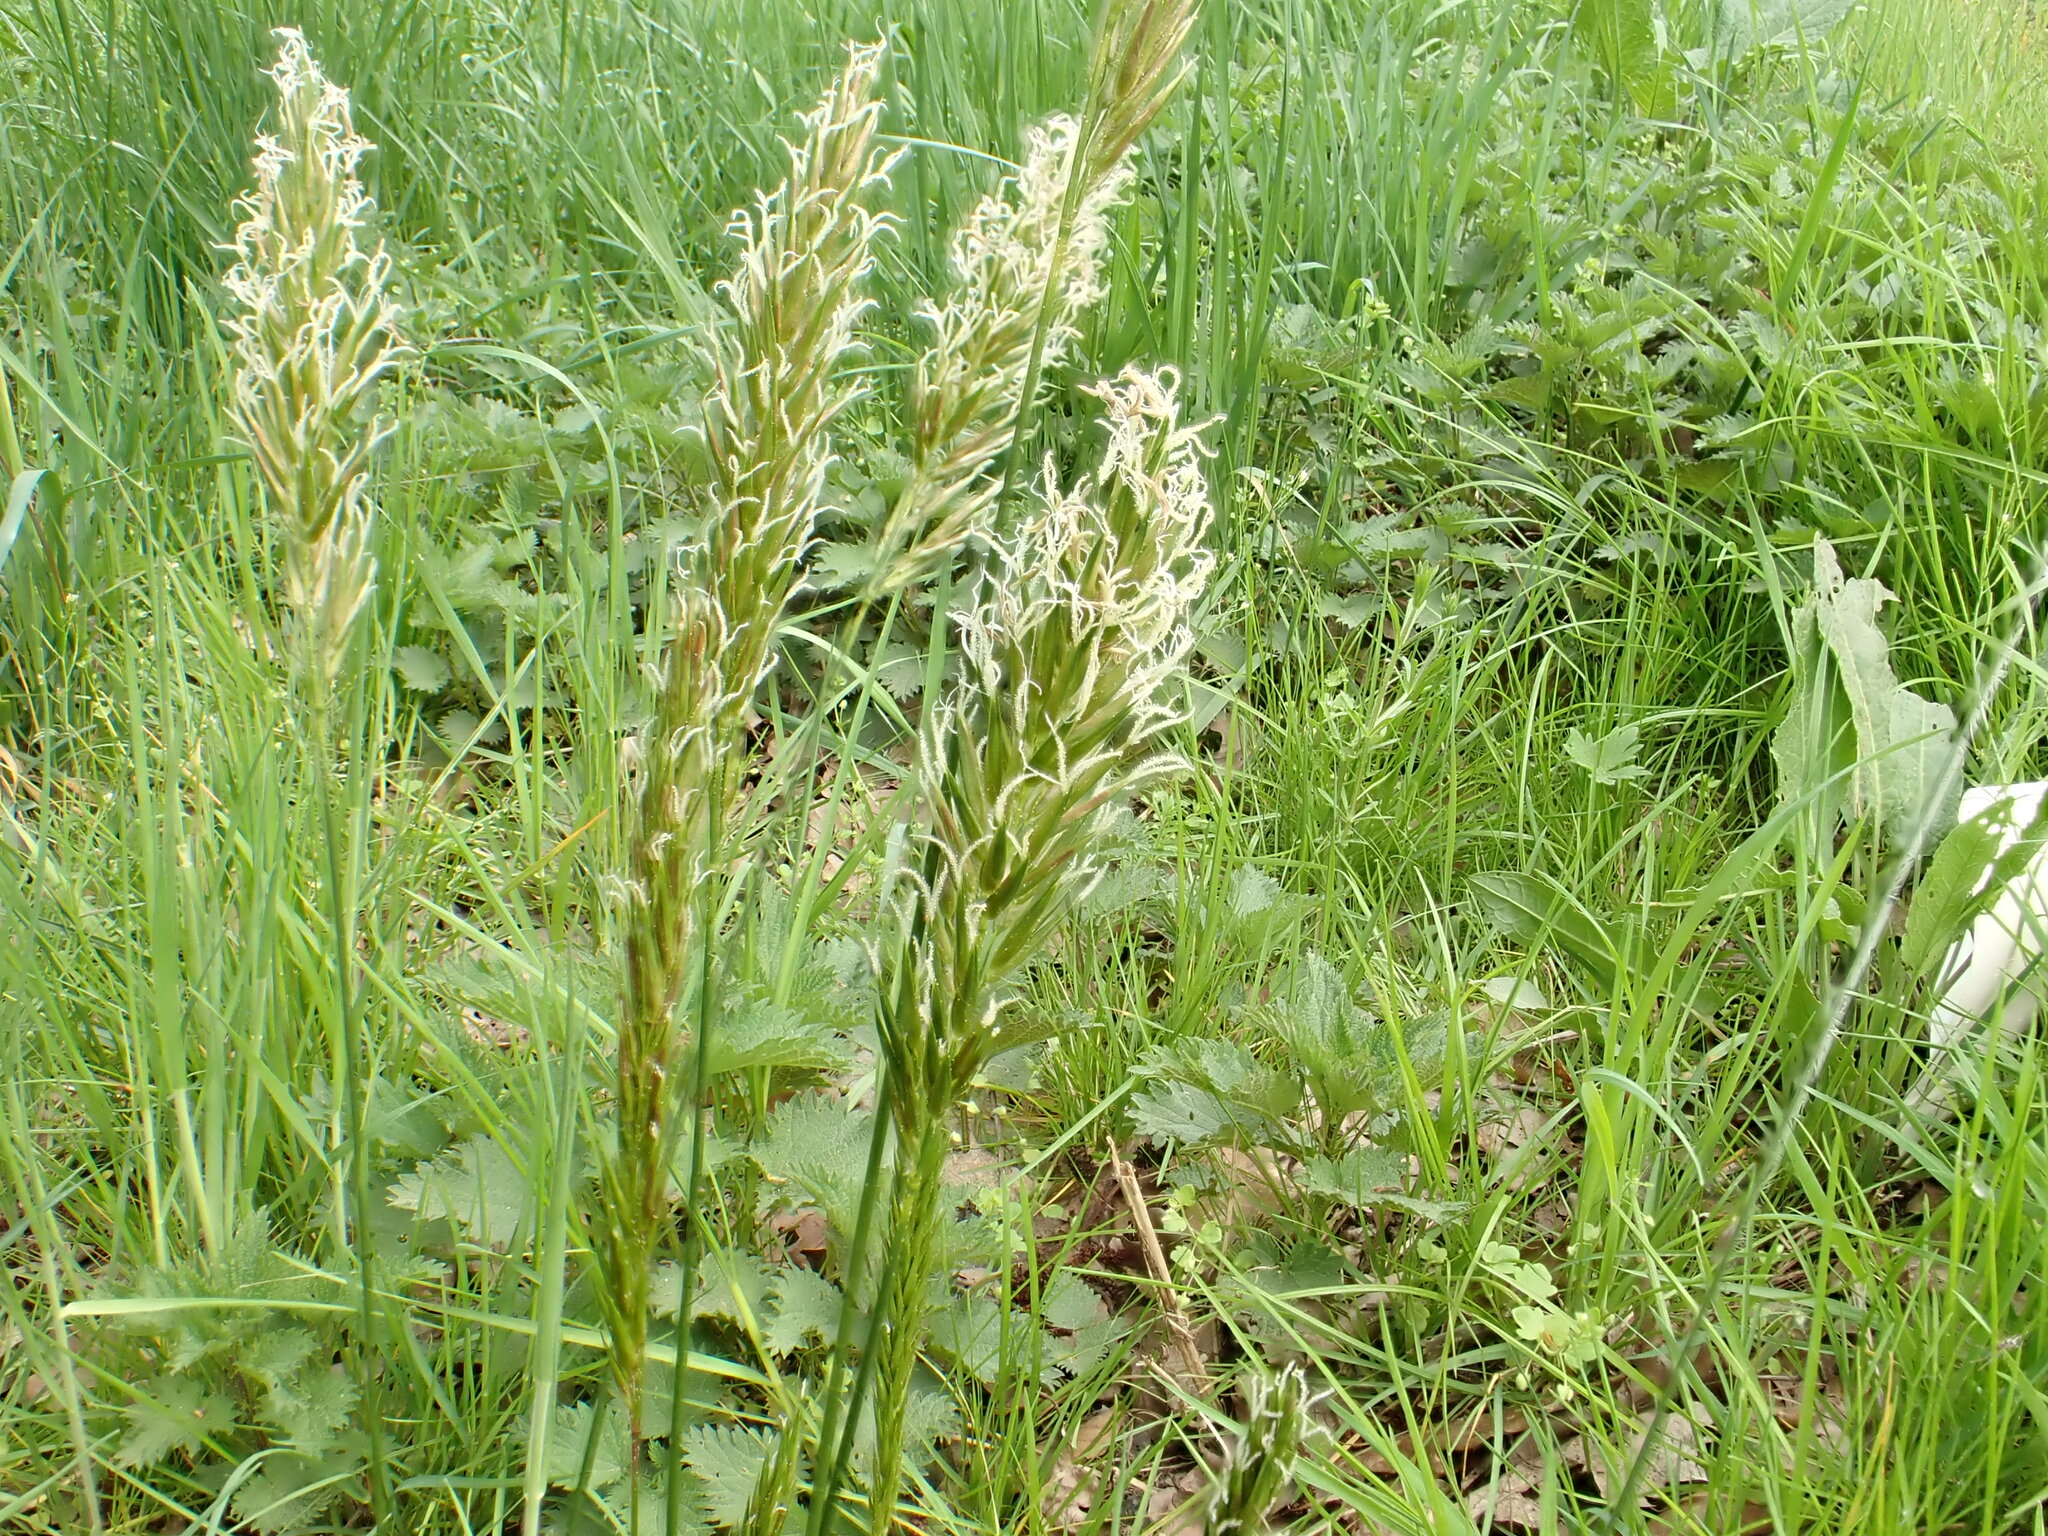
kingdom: Plantae
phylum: Tracheophyta
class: Liliopsida
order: Poales
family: Poaceae
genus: Anthoxanthum
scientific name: Anthoxanthum odoratum
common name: Sweet vernalgrass
